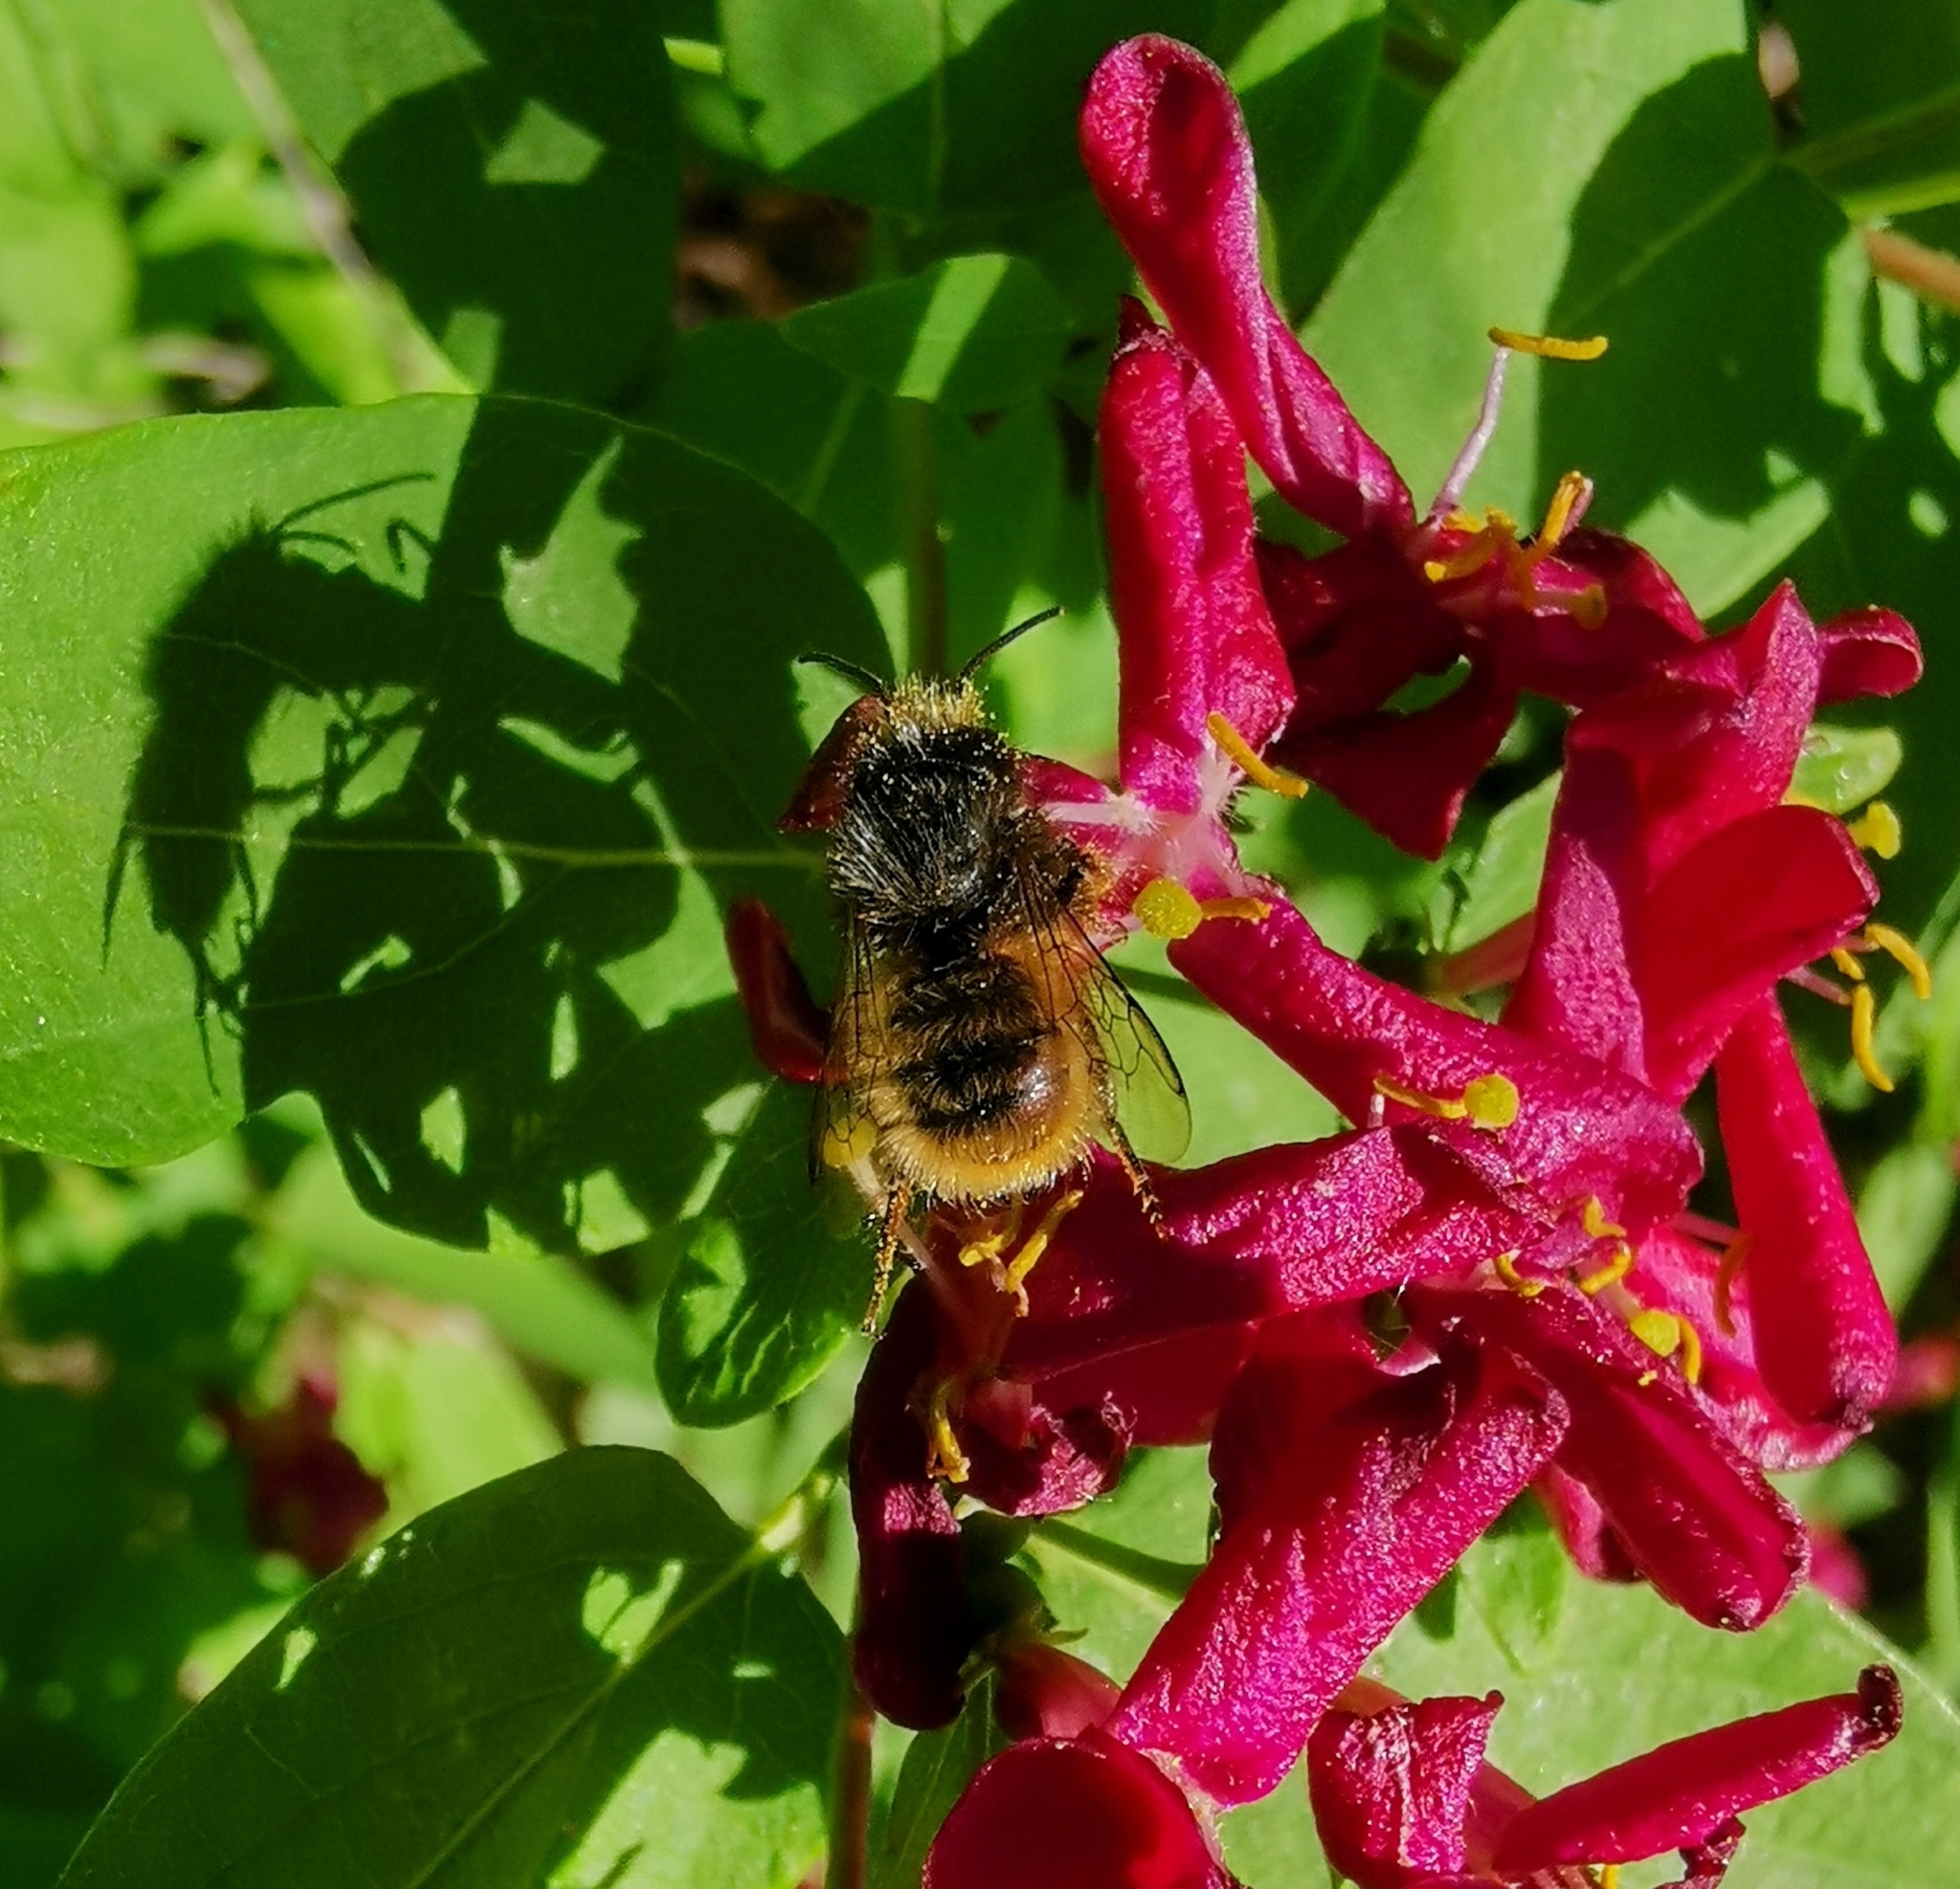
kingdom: Animalia
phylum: Arthropoda
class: Insecta
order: Hymenoptera
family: Megachilidae
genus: Osmia
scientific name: Osmia cornuta
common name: Mason bee
